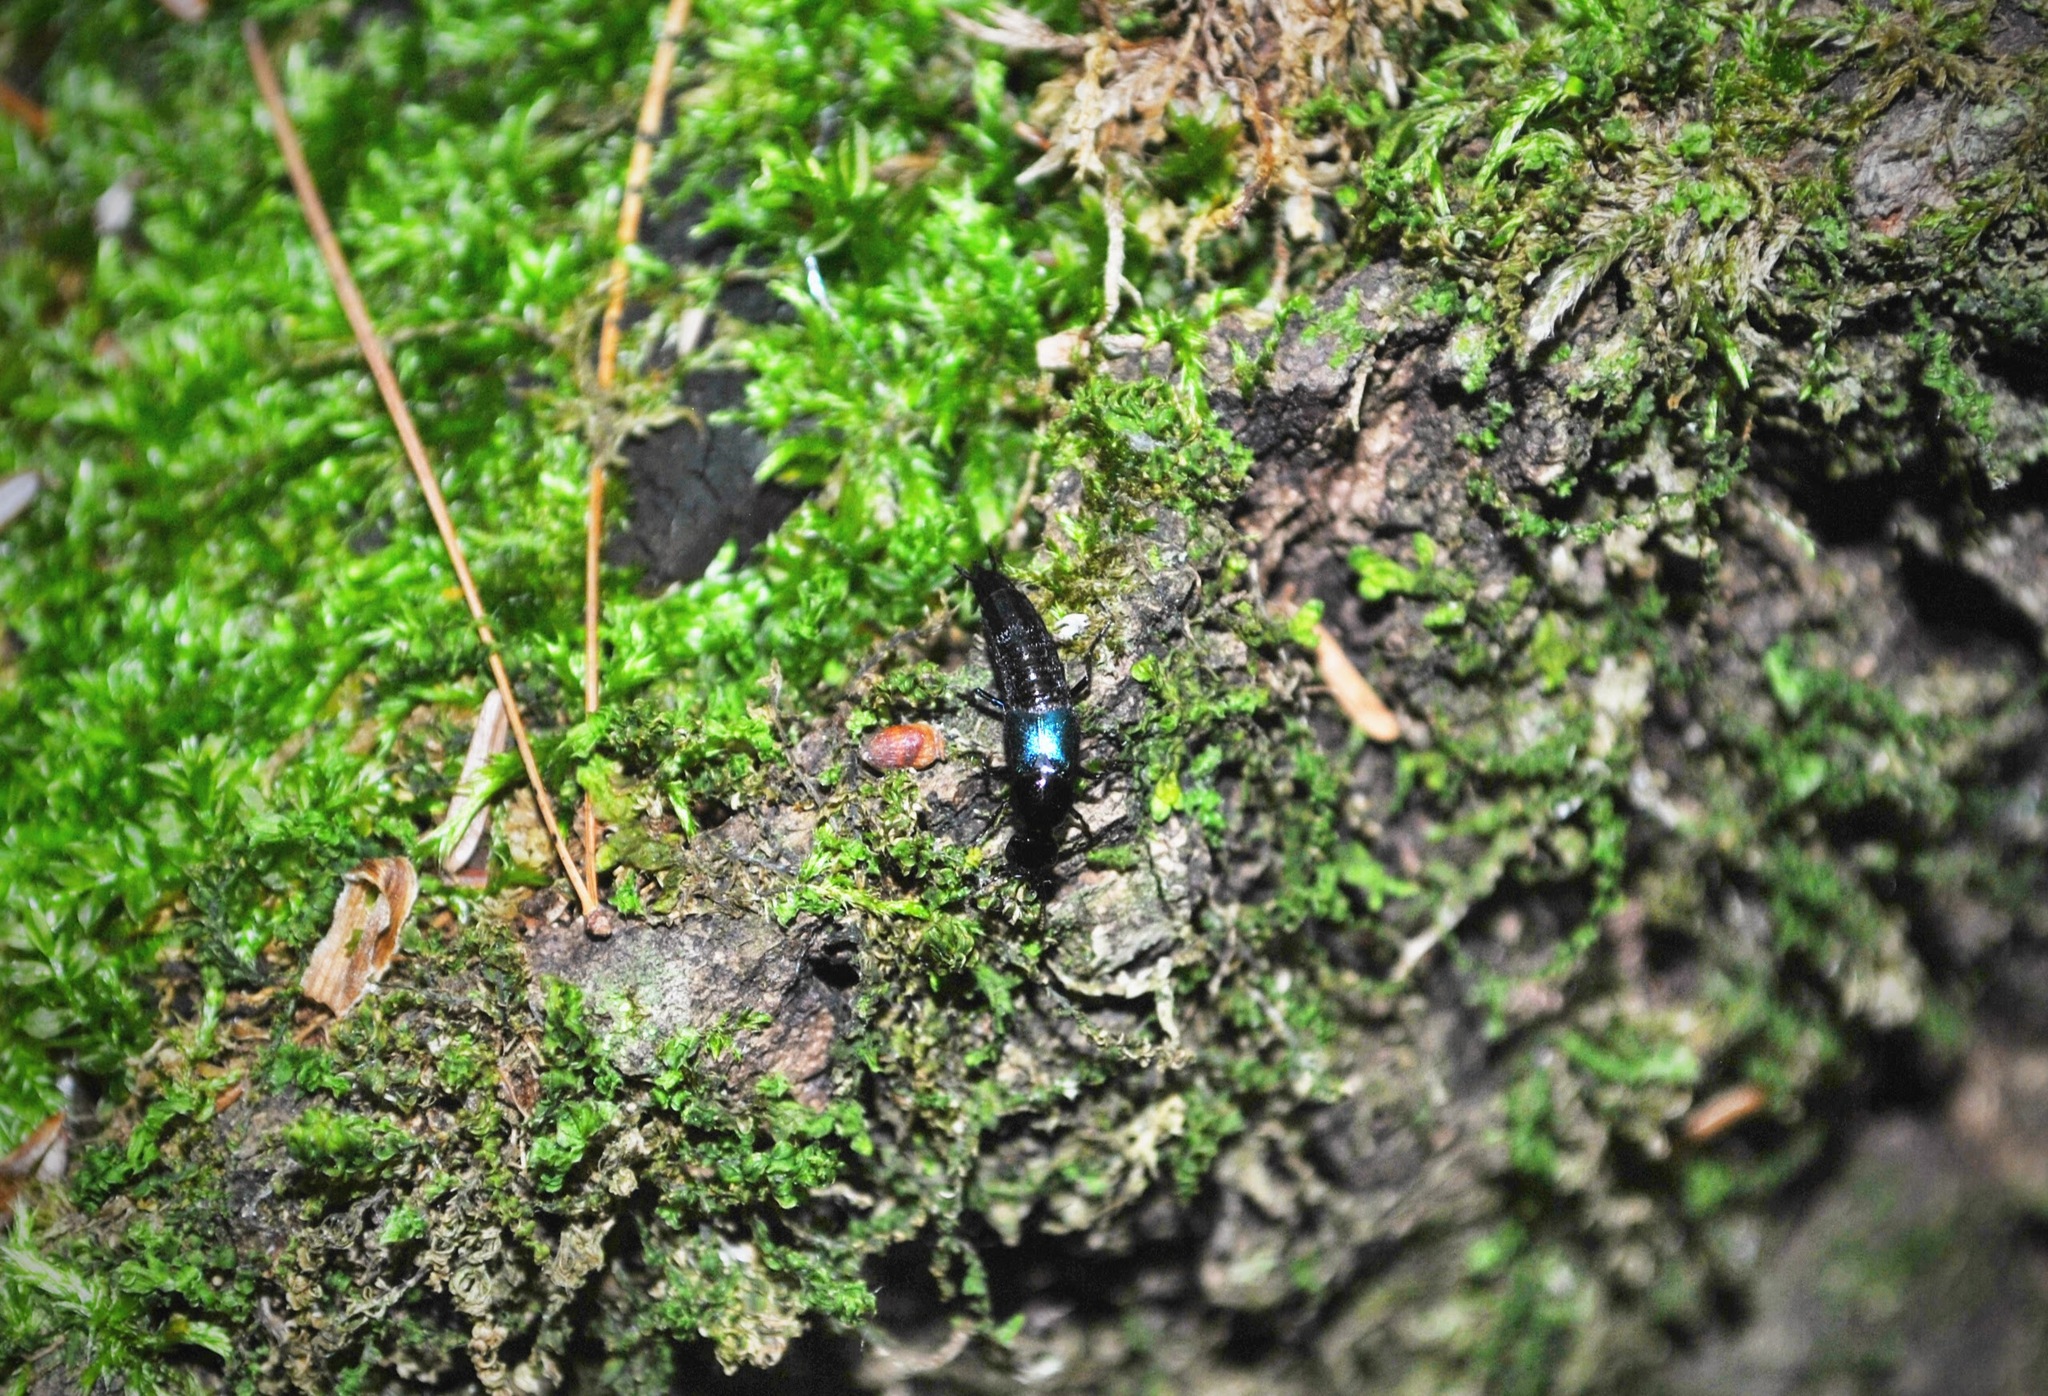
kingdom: Animalia
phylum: Arthropoda
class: Insecta
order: Coleoptera
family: Staphylinidae
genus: Philonthus
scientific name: Philonthus caeruleipennis
